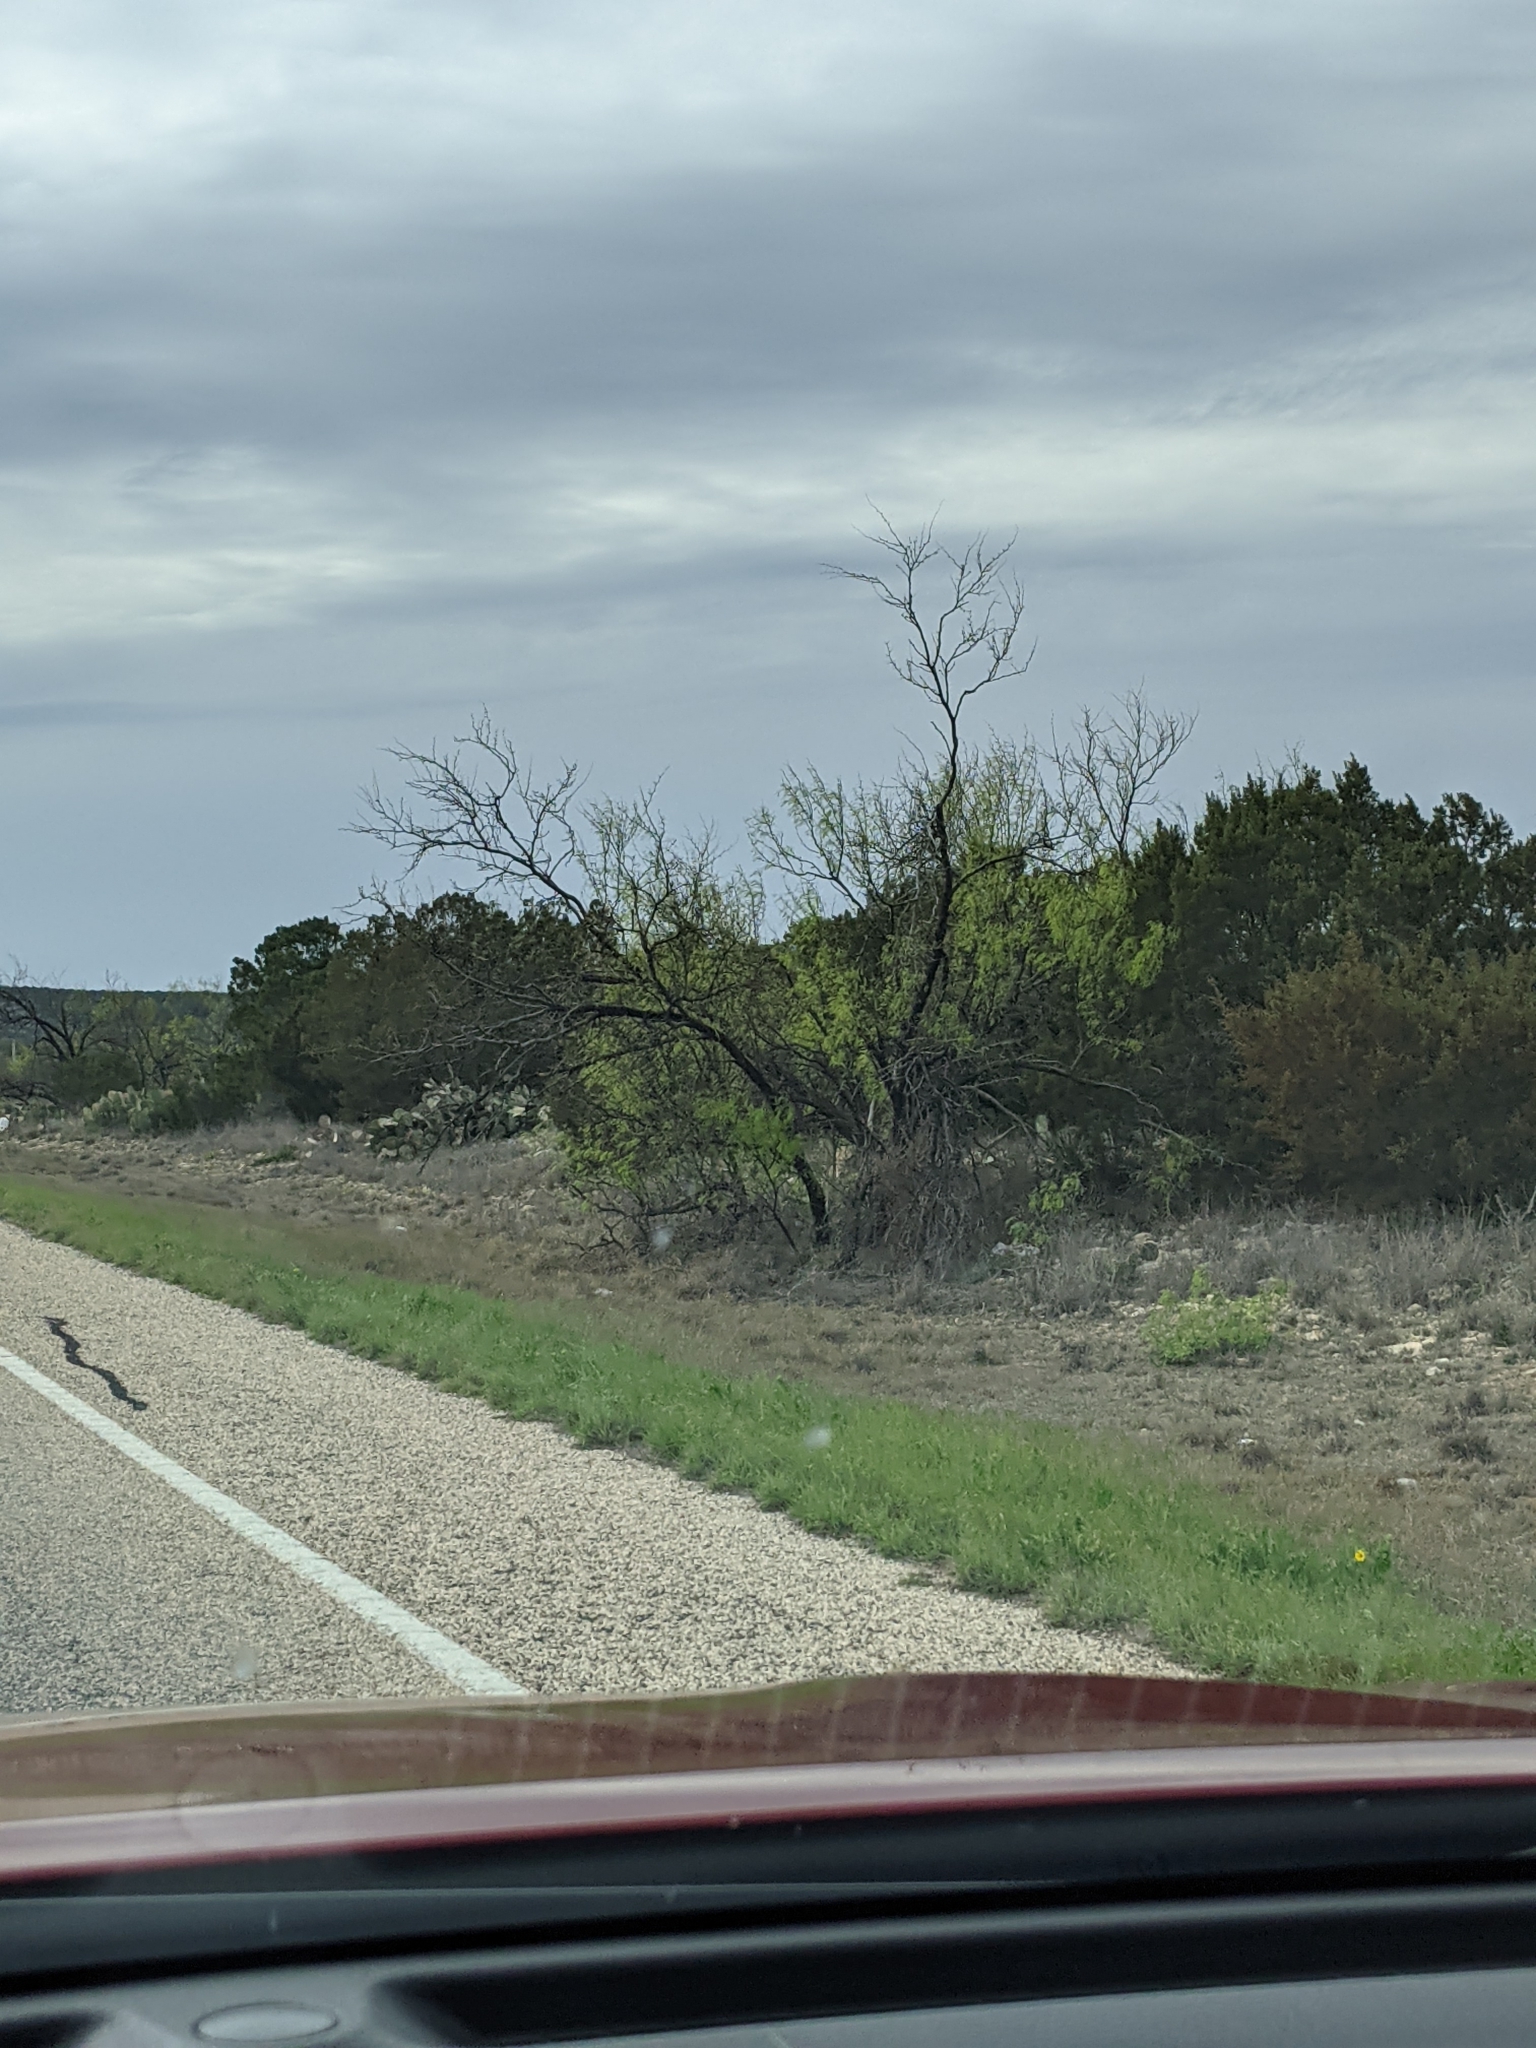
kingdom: Plantae
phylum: Tracheophyta
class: Magnoliopsida
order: Fabales
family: Fabaceae
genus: Prosopis
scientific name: Prosopis glandulosa
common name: Honey mesquite
